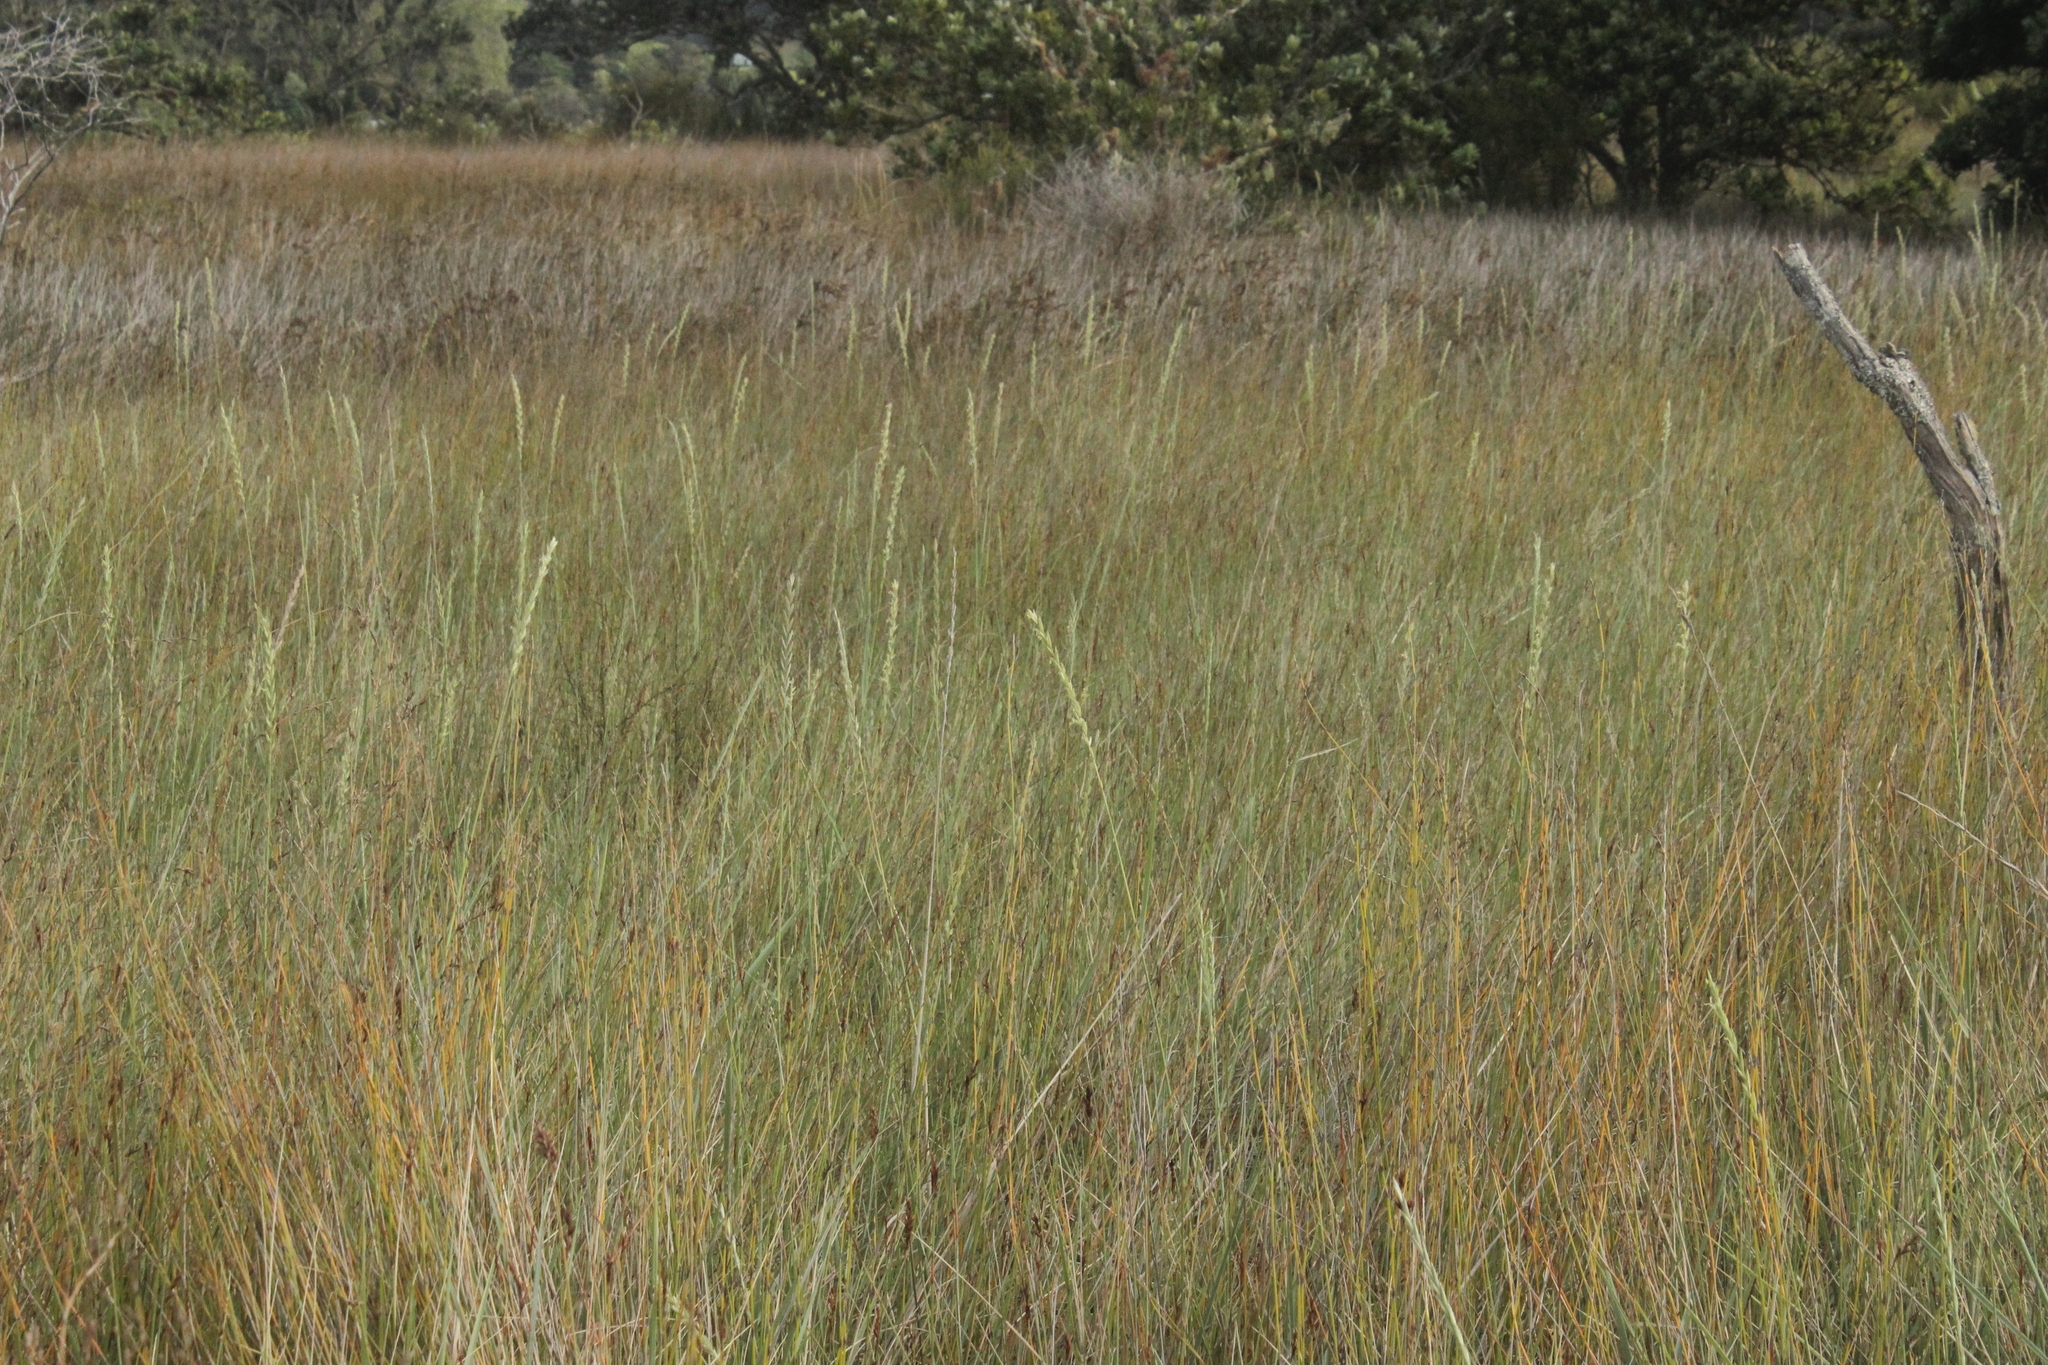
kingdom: Plantae
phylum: Tracheophyta
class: Liliopsida
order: Poales
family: Poaceae
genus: Thinopyrum
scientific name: Thinopyrum acutum
